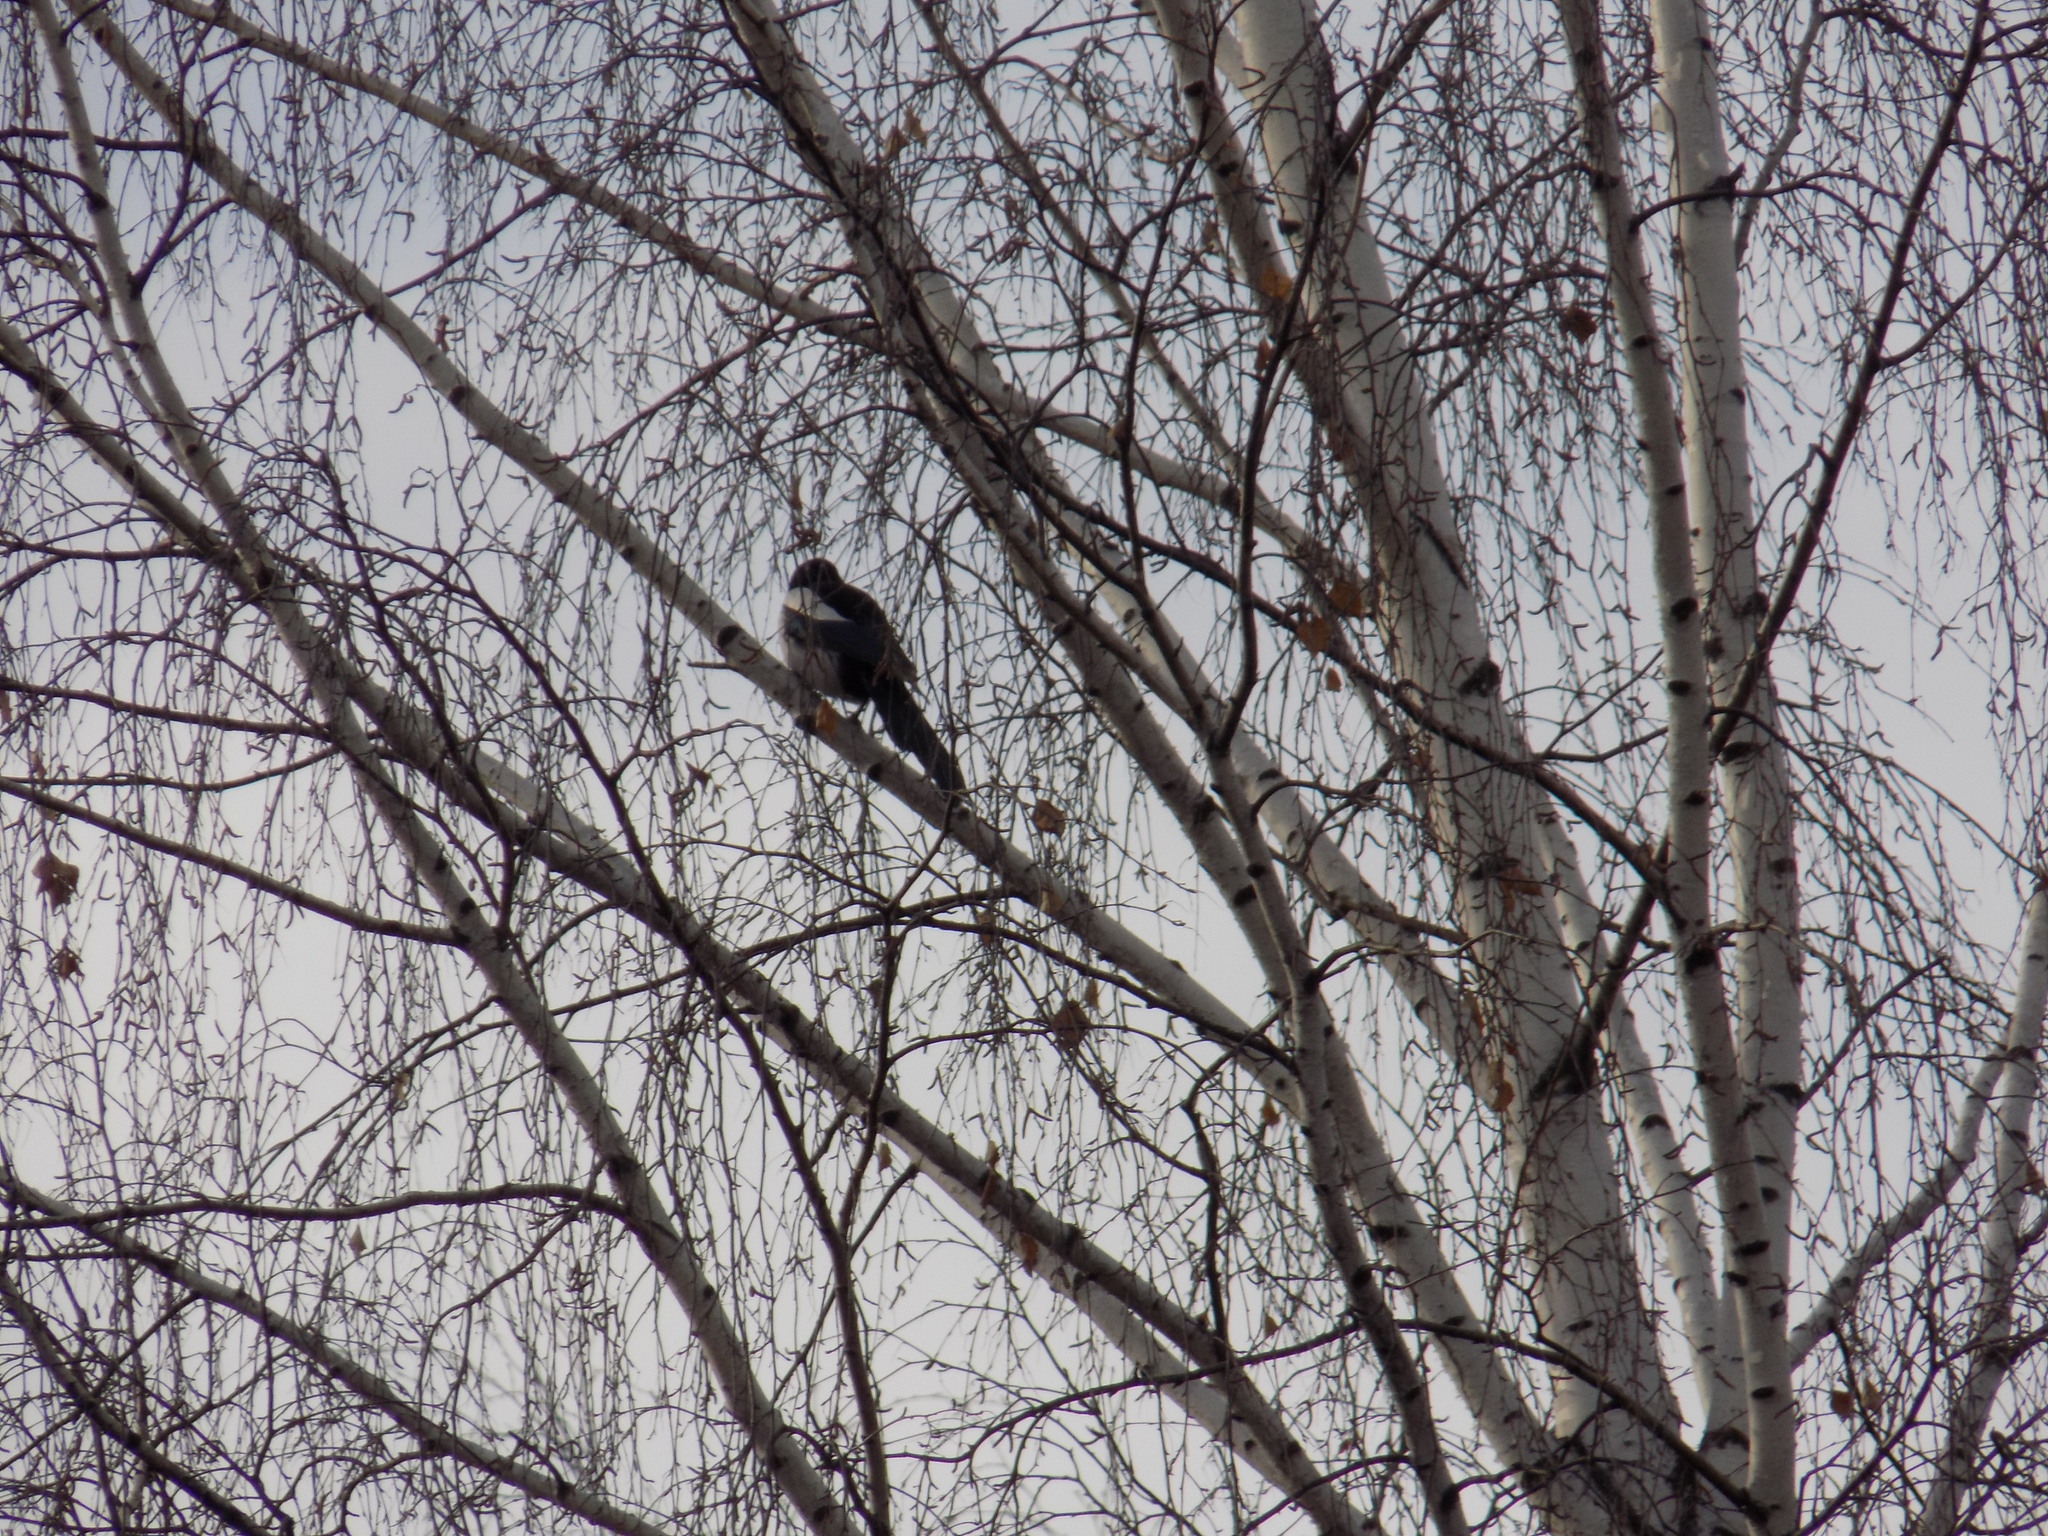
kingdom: Animalia
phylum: Chordata
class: Aves
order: Passeriformes
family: Corvidae
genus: Pica
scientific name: Pica pica
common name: Eurasian magpie
